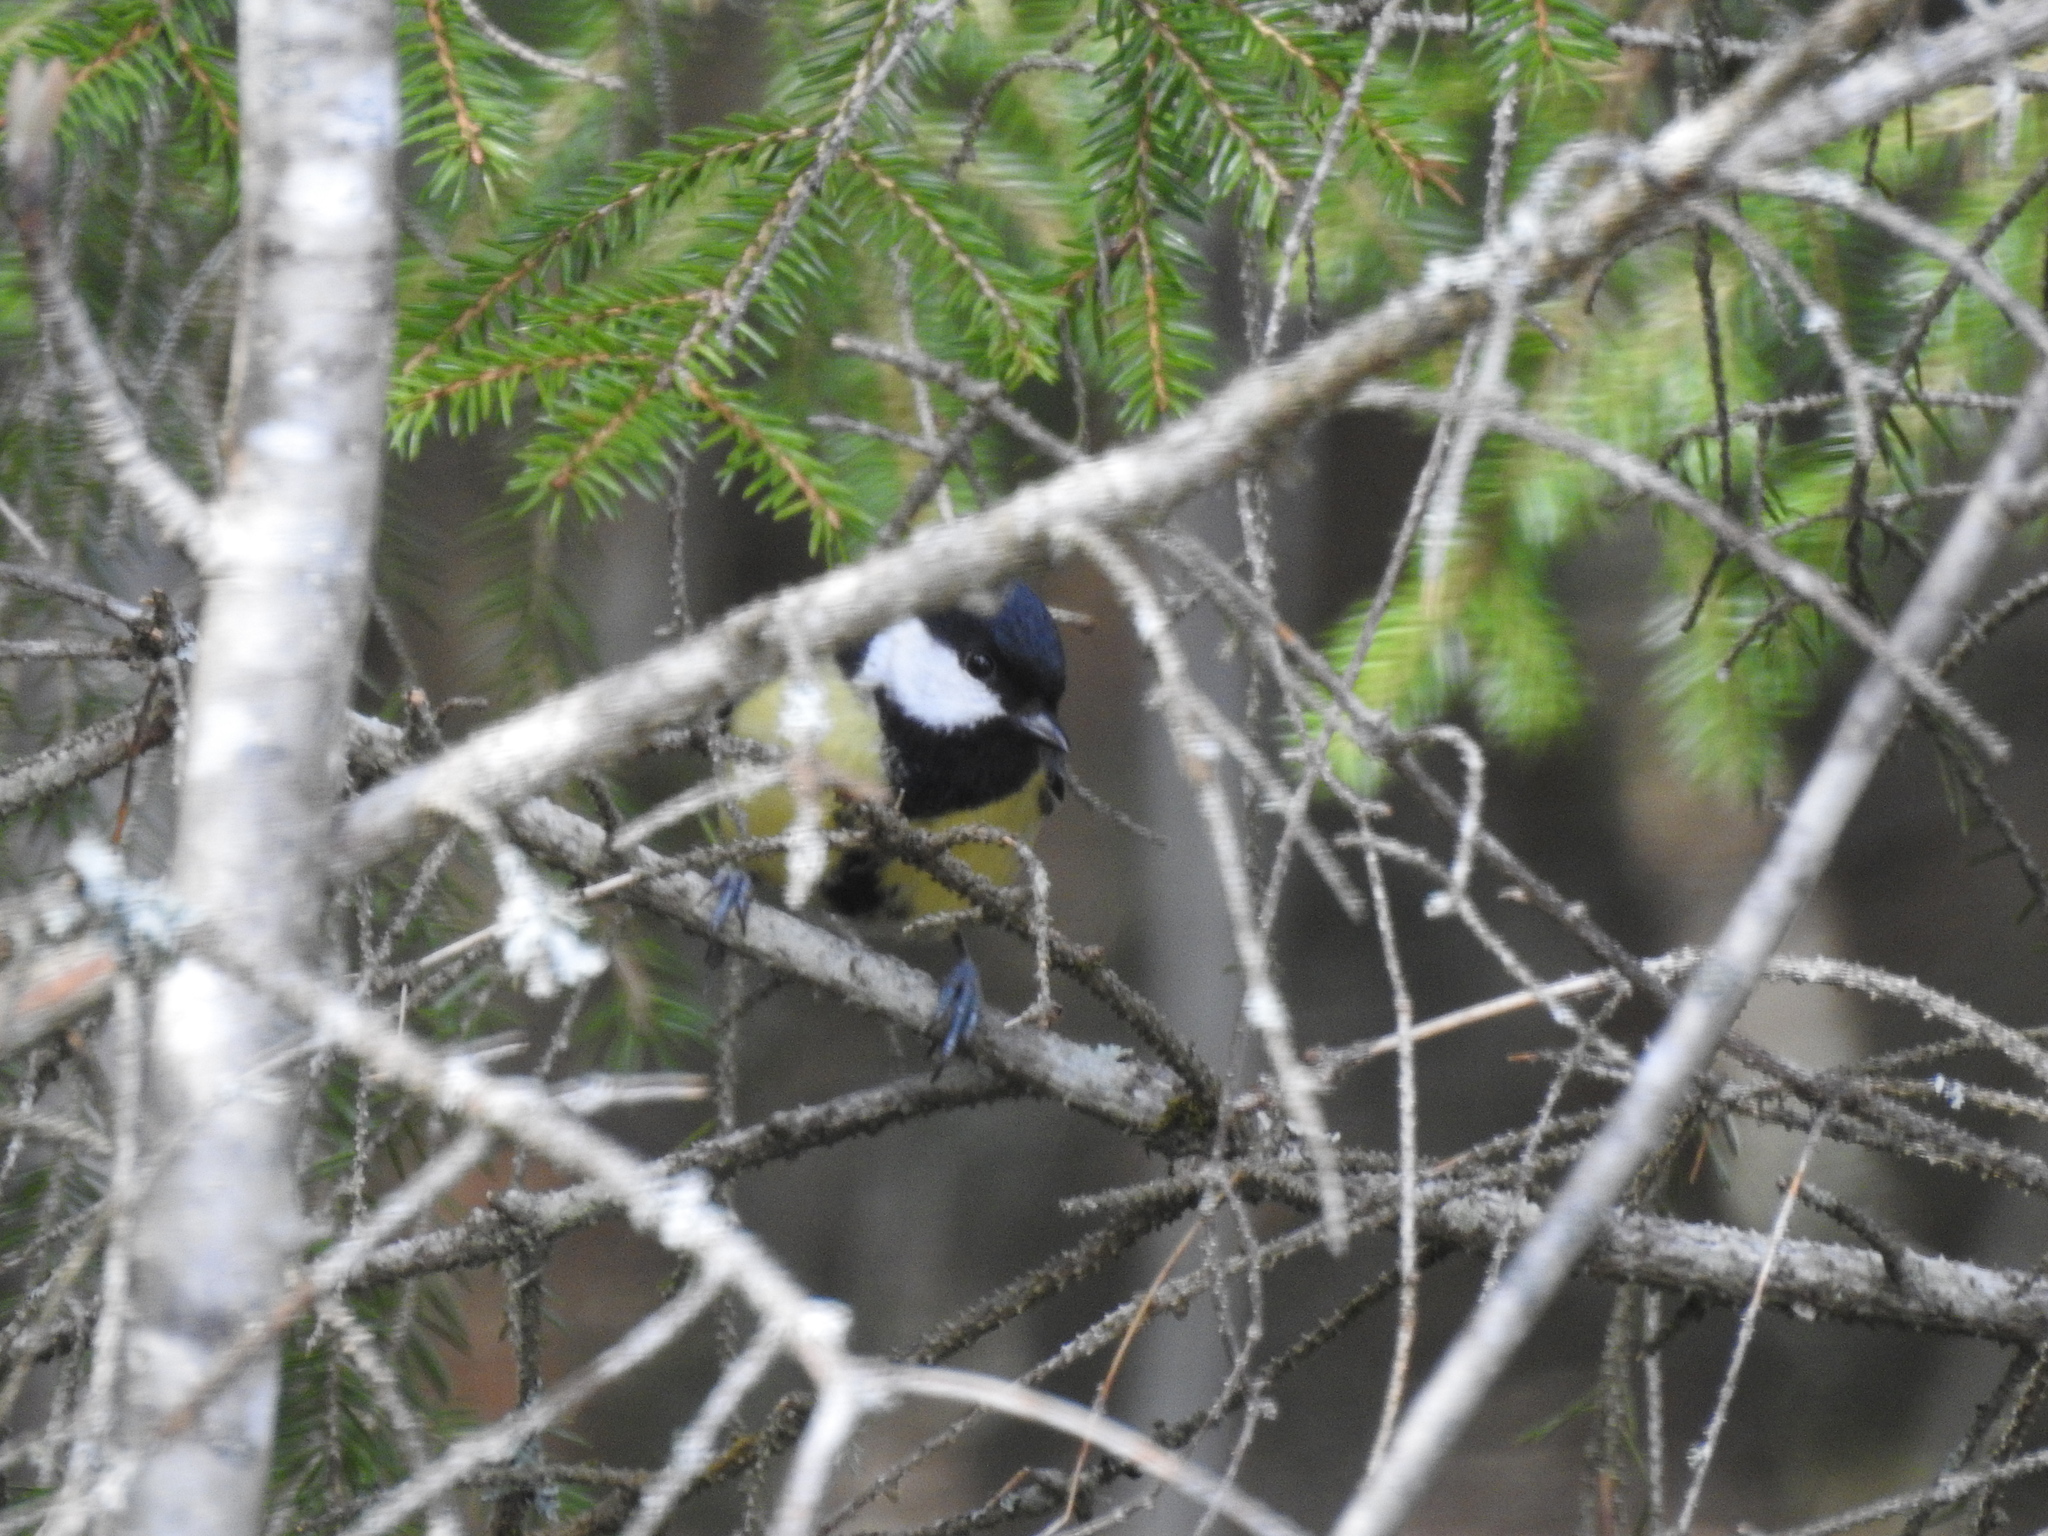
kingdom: Animalia
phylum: Chordata
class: Aves
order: Passeriformes
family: Paridae
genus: Parus
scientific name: Parus major
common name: Great tit
